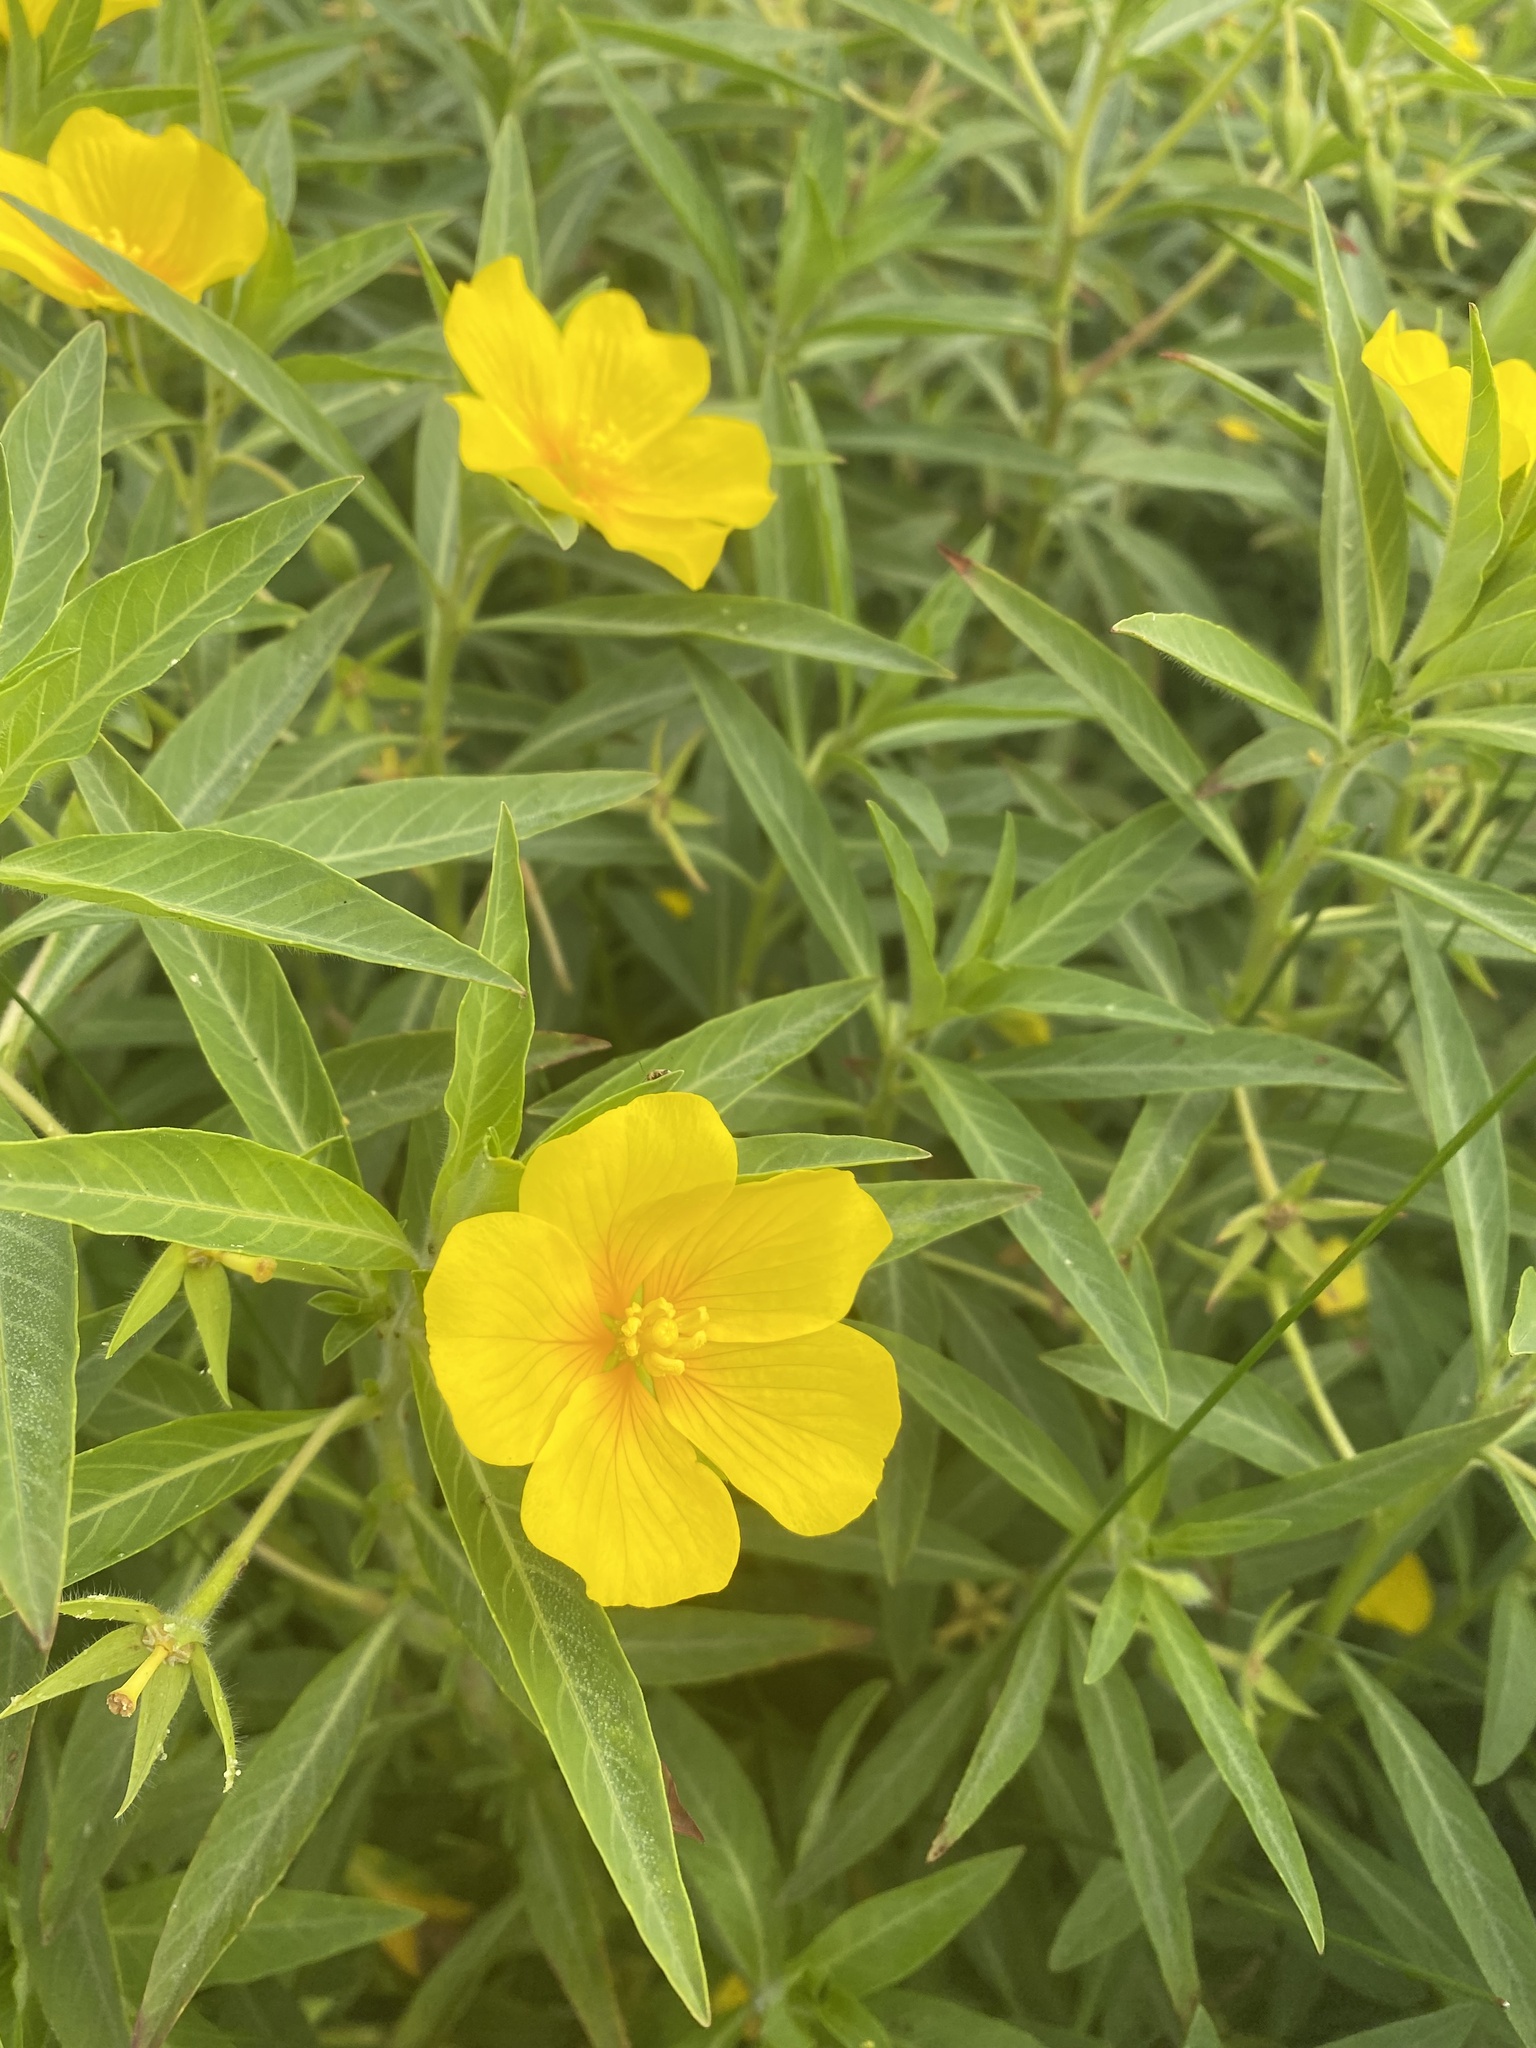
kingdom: Plantae
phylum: Tracheophyta
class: Magnoliopsida
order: Myrtales
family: Onagraceae
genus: Ludwigia
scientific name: Ludwigia grandiflora
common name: Water primrose
